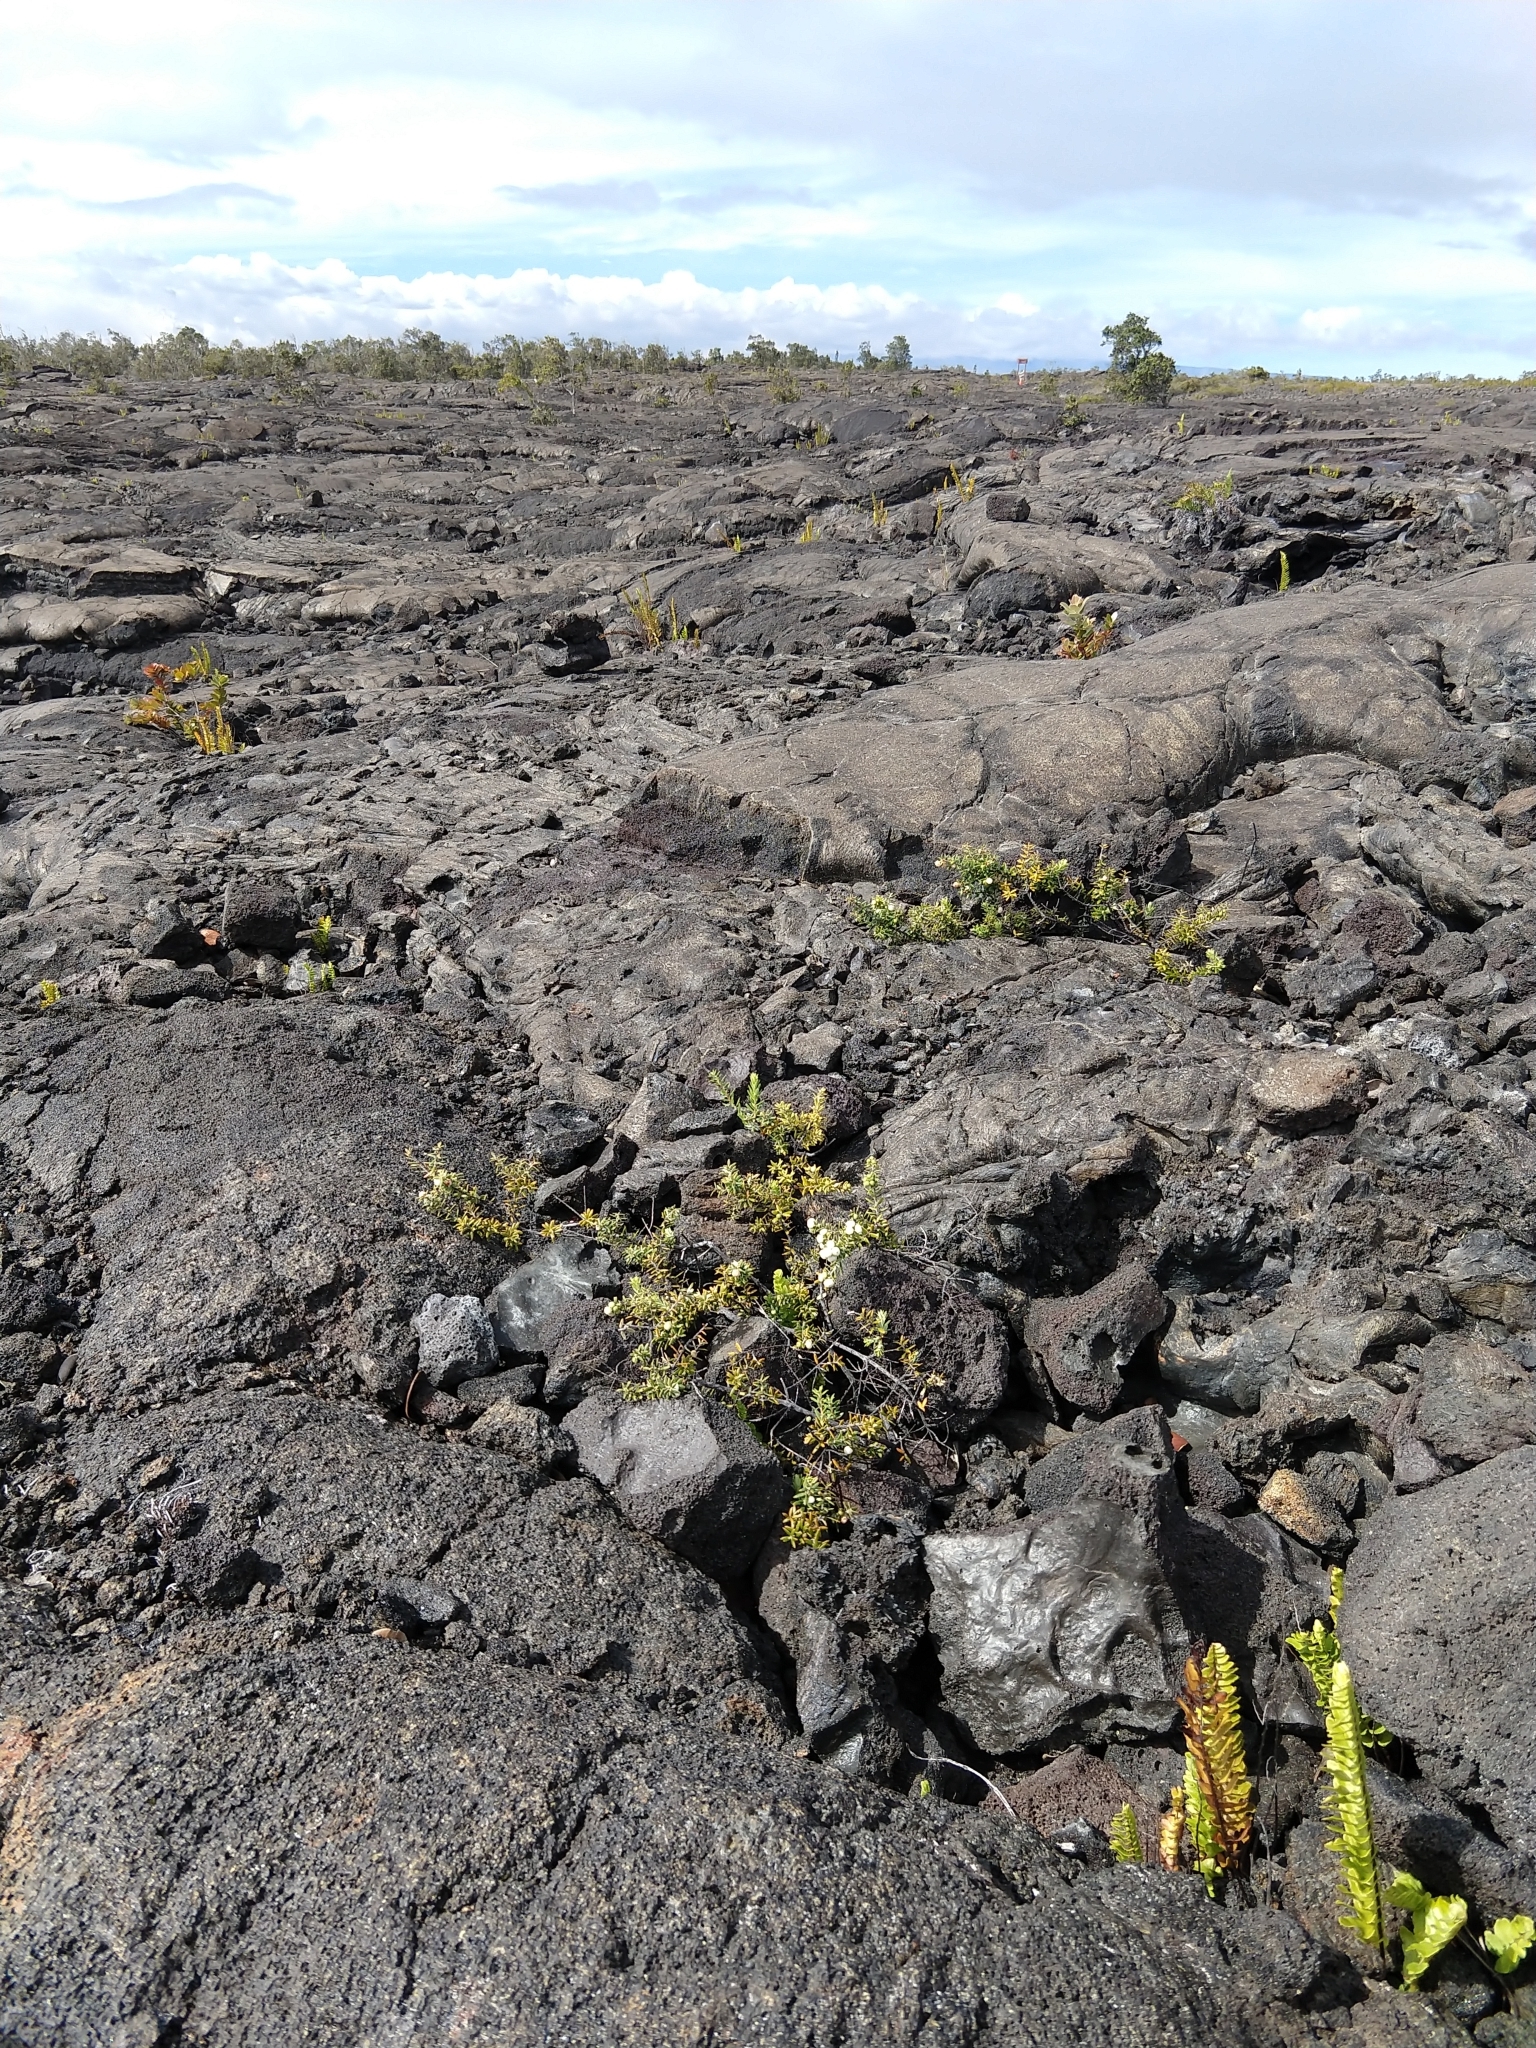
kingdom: Plantae
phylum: Tracheophyta
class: Magnoliopsida
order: Ericales
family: Ericaceae
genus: Leptecophylla
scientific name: Leptecophylla tameiameiae
